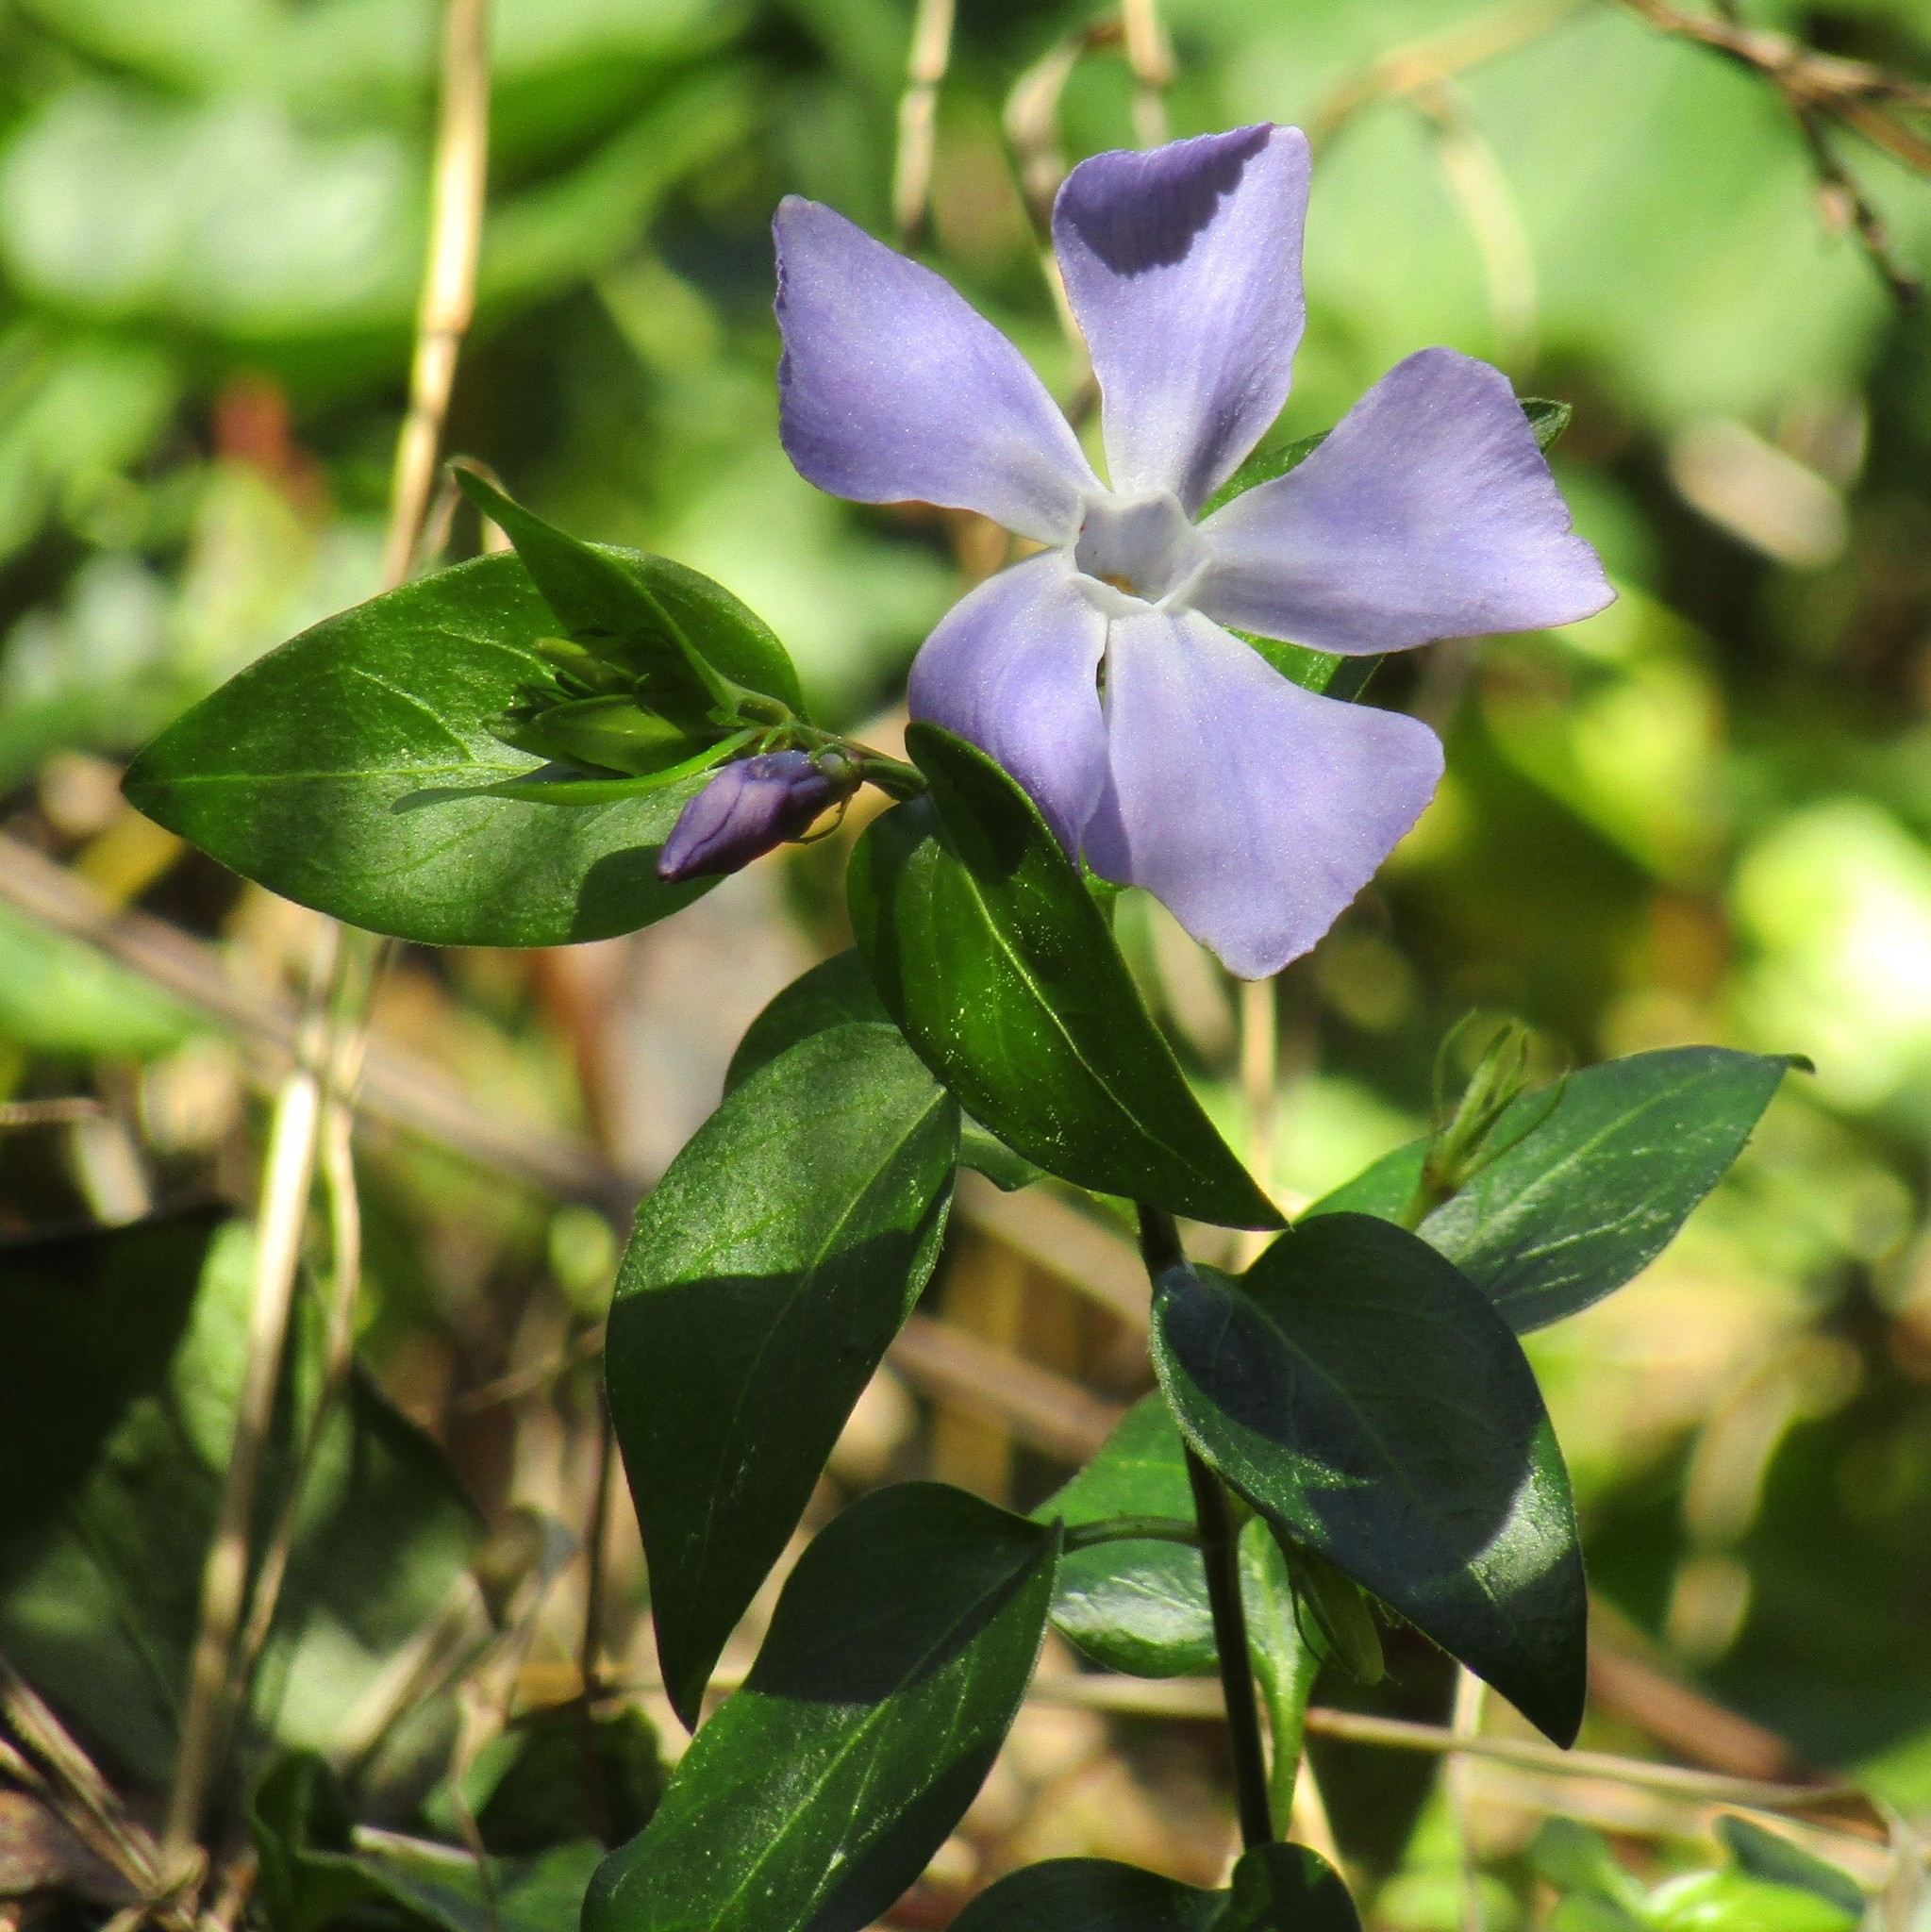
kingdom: Plantae
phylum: Tracheophyta
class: Magnoliopsida
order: Gentianales
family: Apocynaceae
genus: Vinca
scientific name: Vinca major
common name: Greater periwinkle
